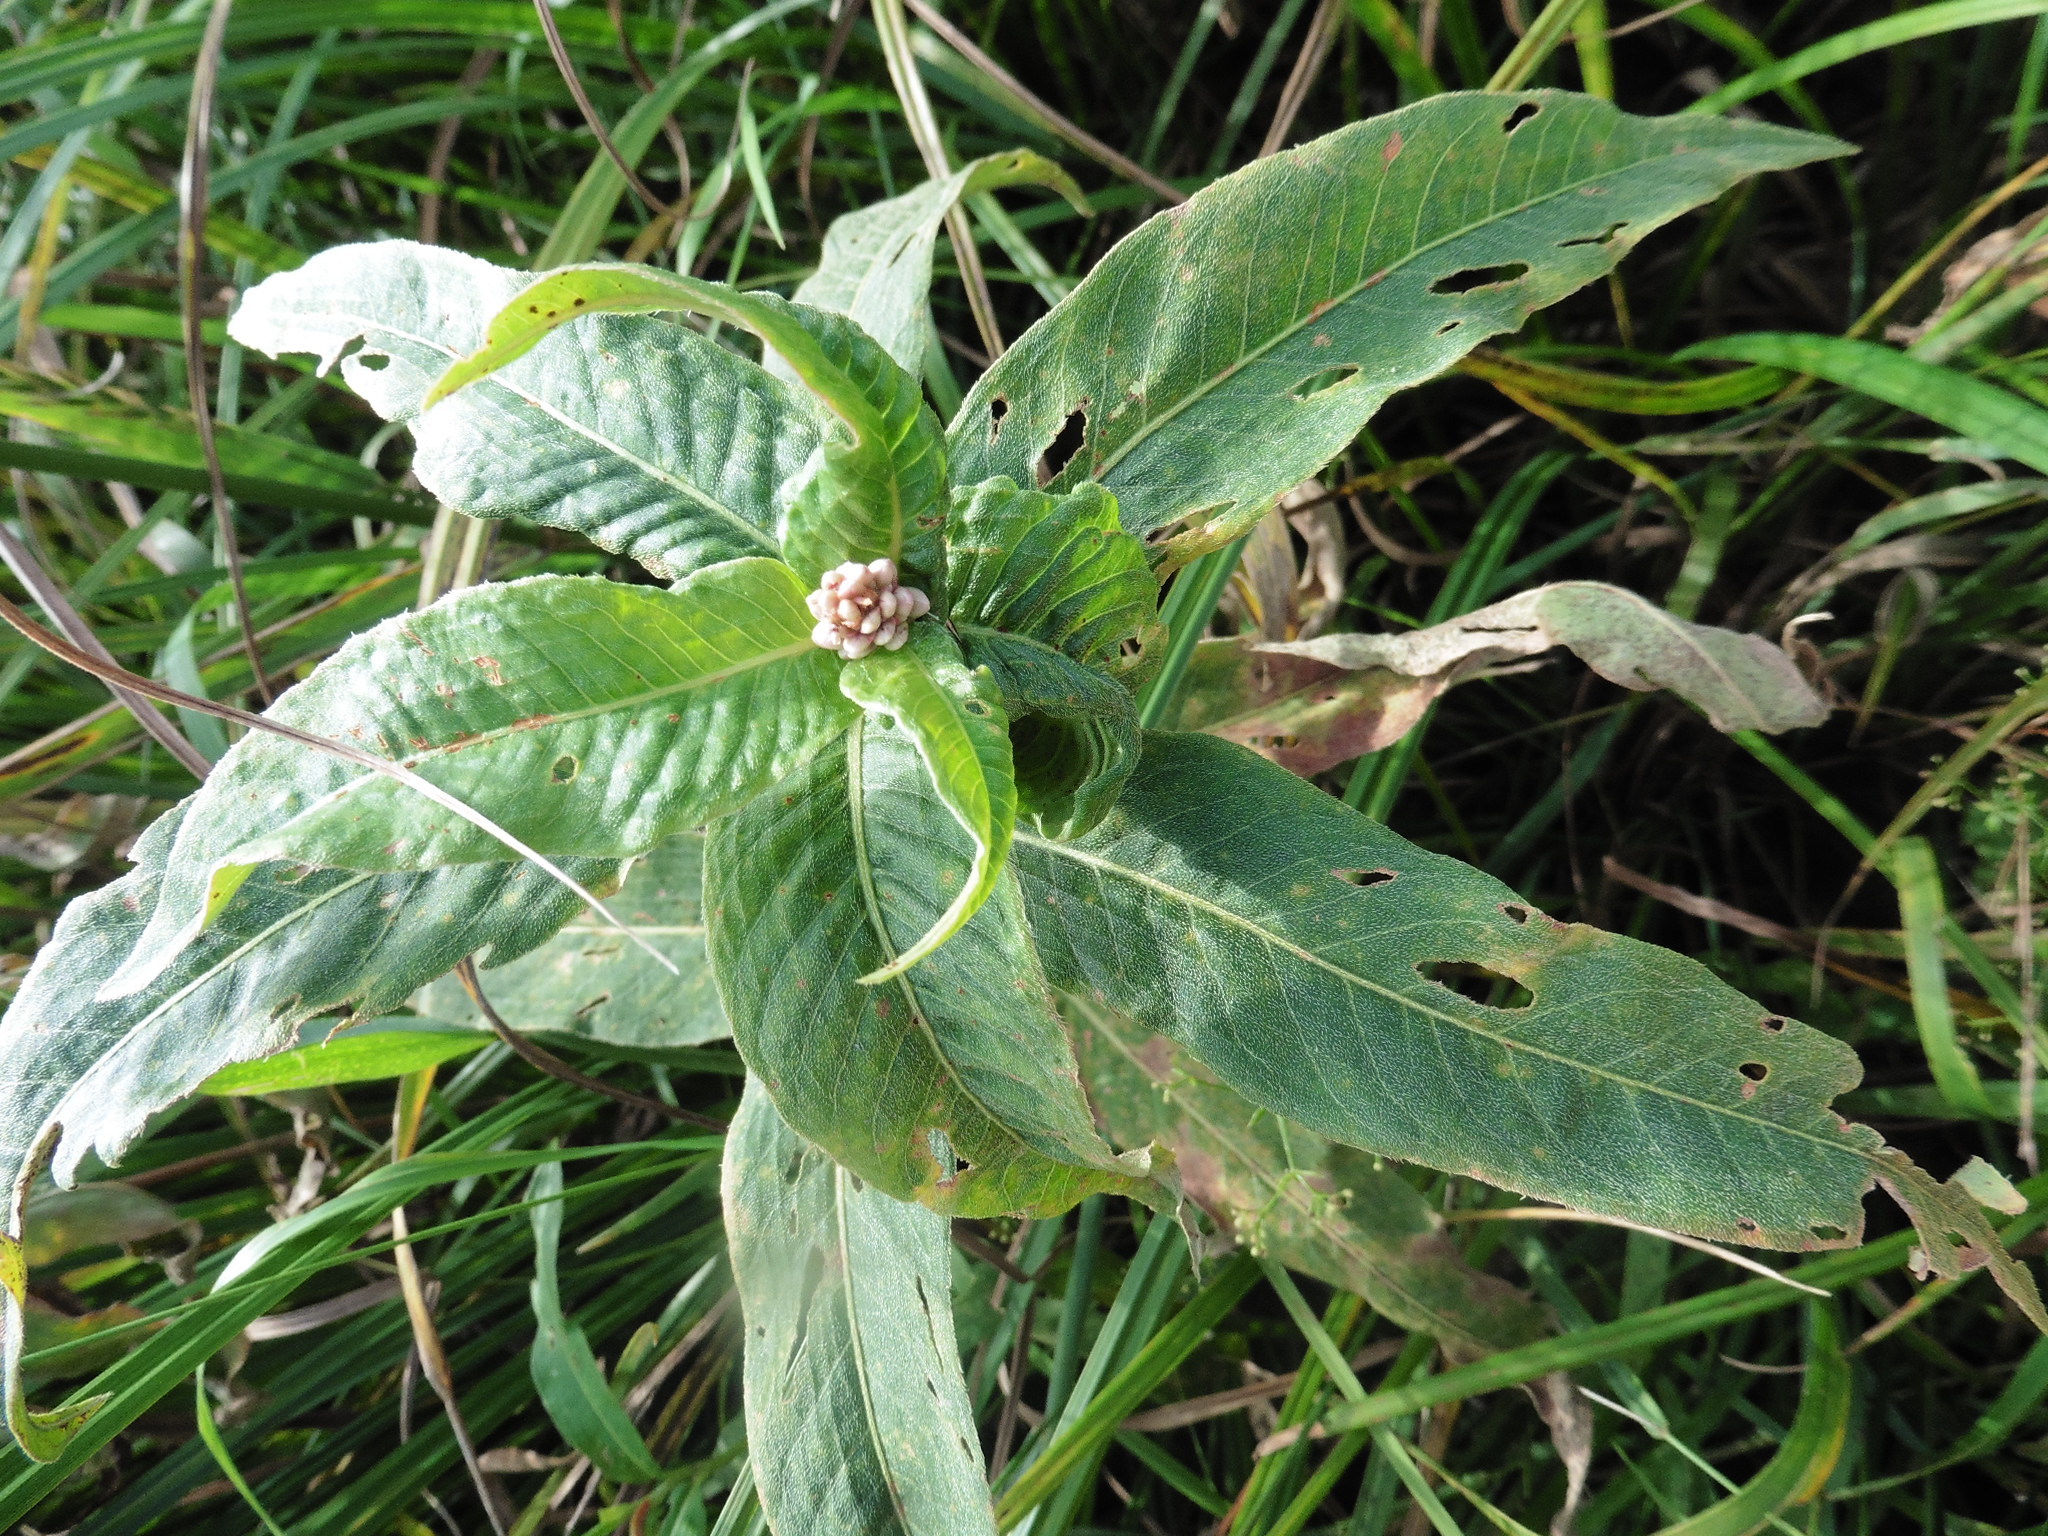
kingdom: Plantae
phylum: Tracheophyta
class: Magnoliopsida
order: Caryophyllales
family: Polygonaceae
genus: Persicaria
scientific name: Persicaria amphibia
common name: Amphibious bistort
